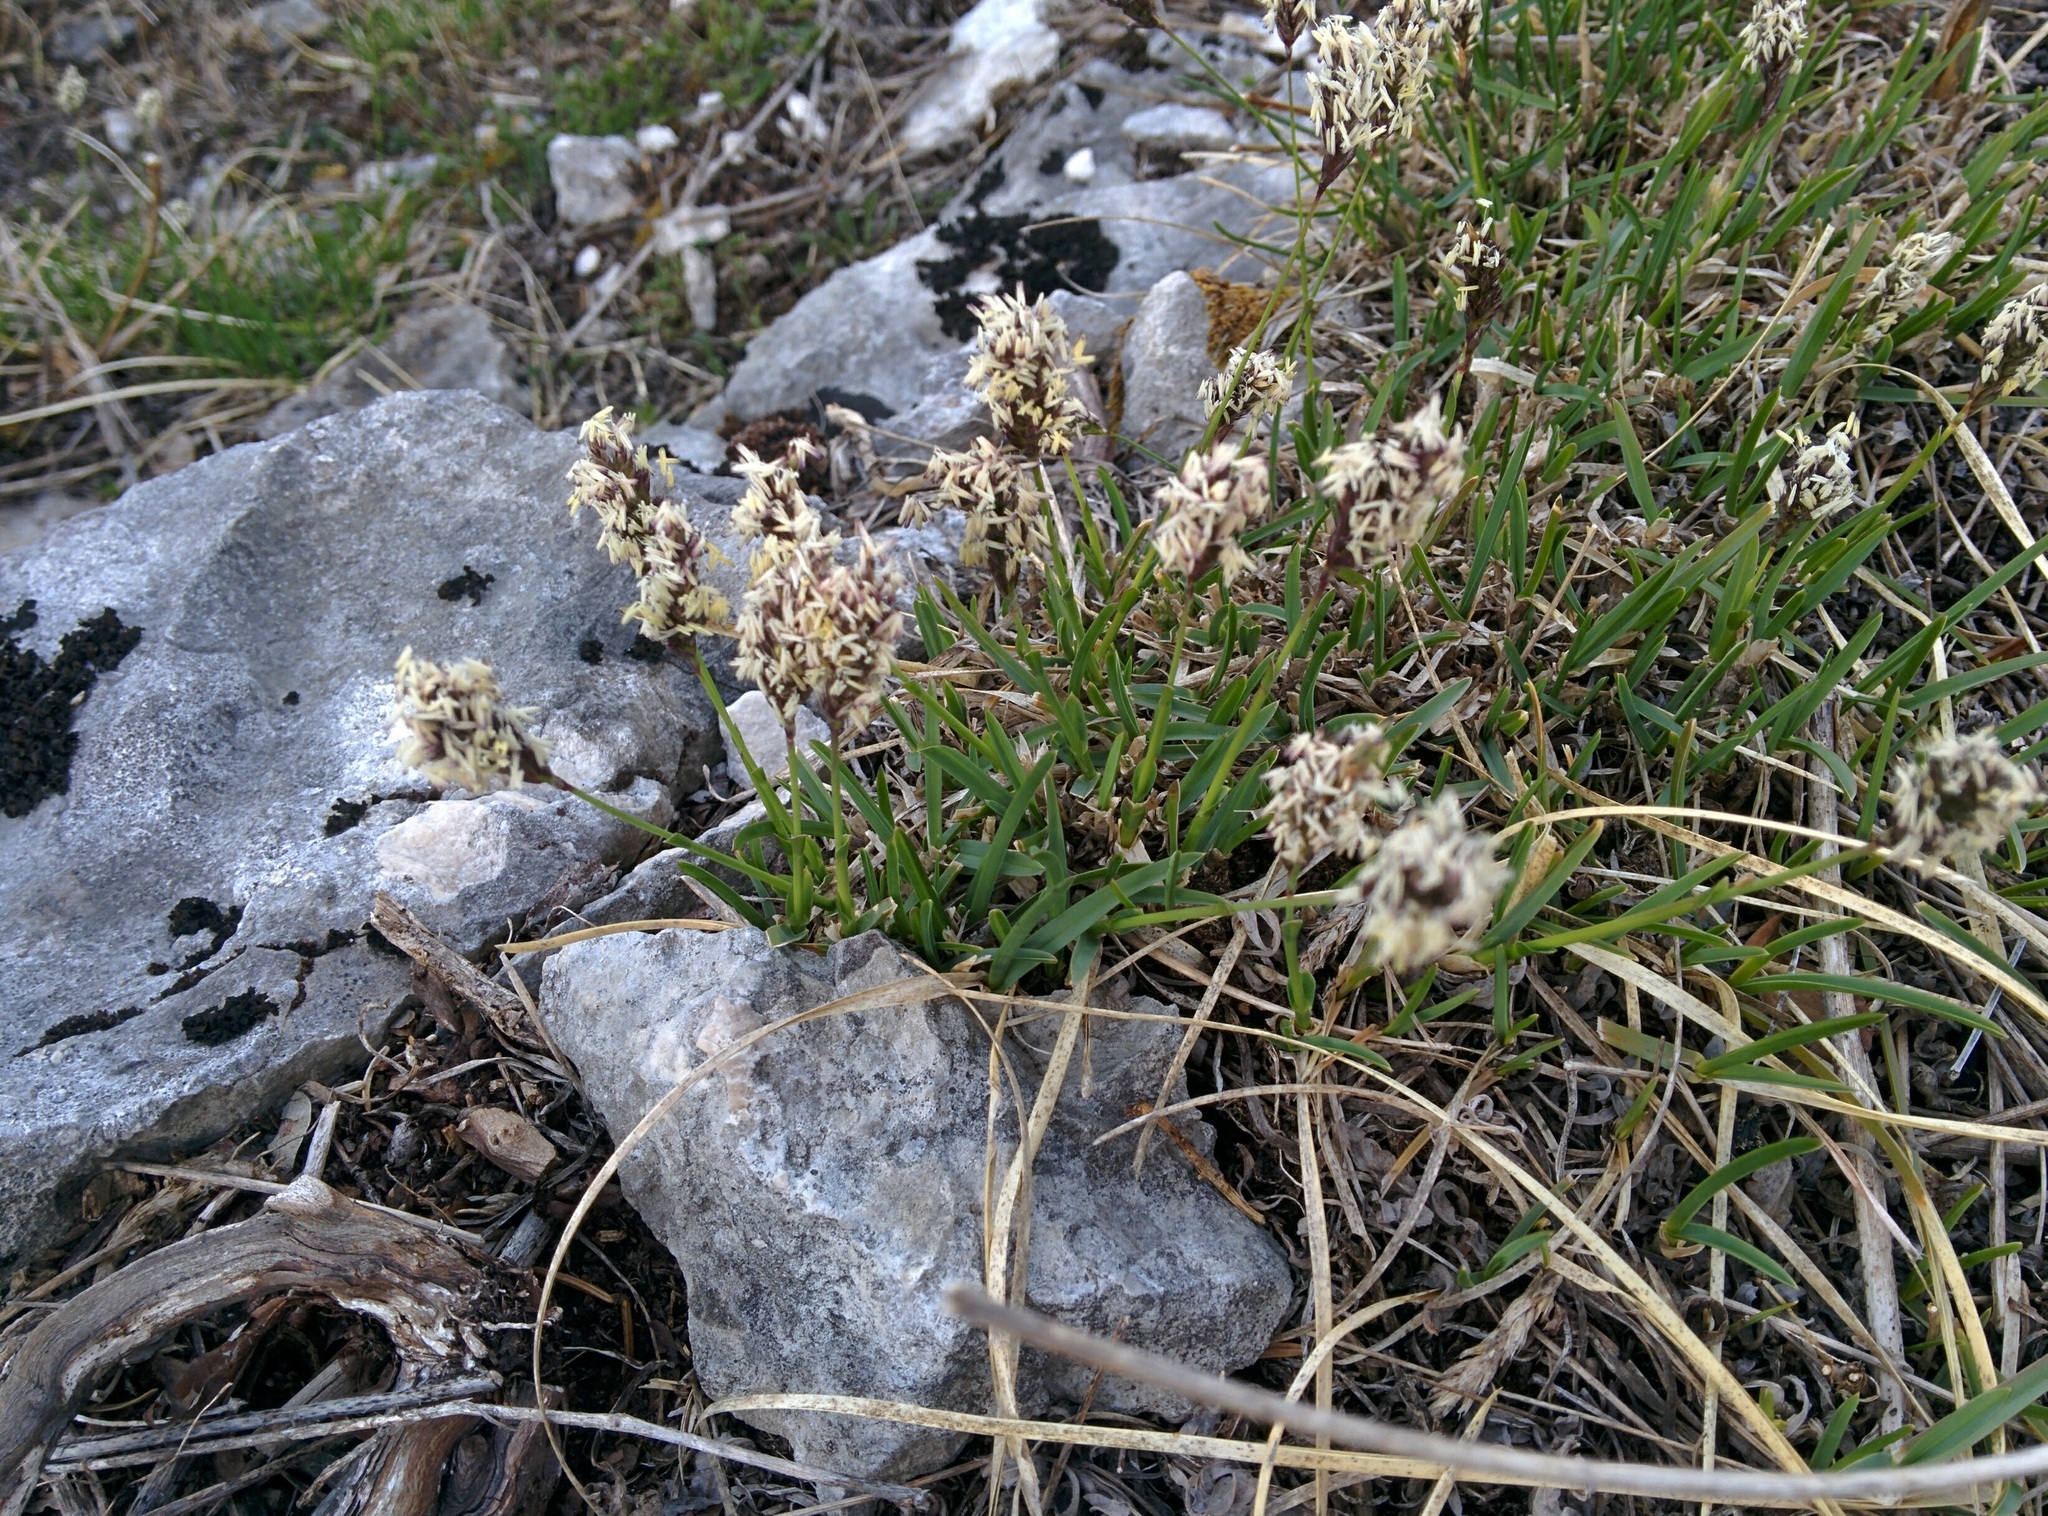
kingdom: Plantae
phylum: Tracheophyta
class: Liliopsida
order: Poales
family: Poaceae
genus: Sesleria
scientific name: Sesleria caerulea
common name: Blue moor-grass
